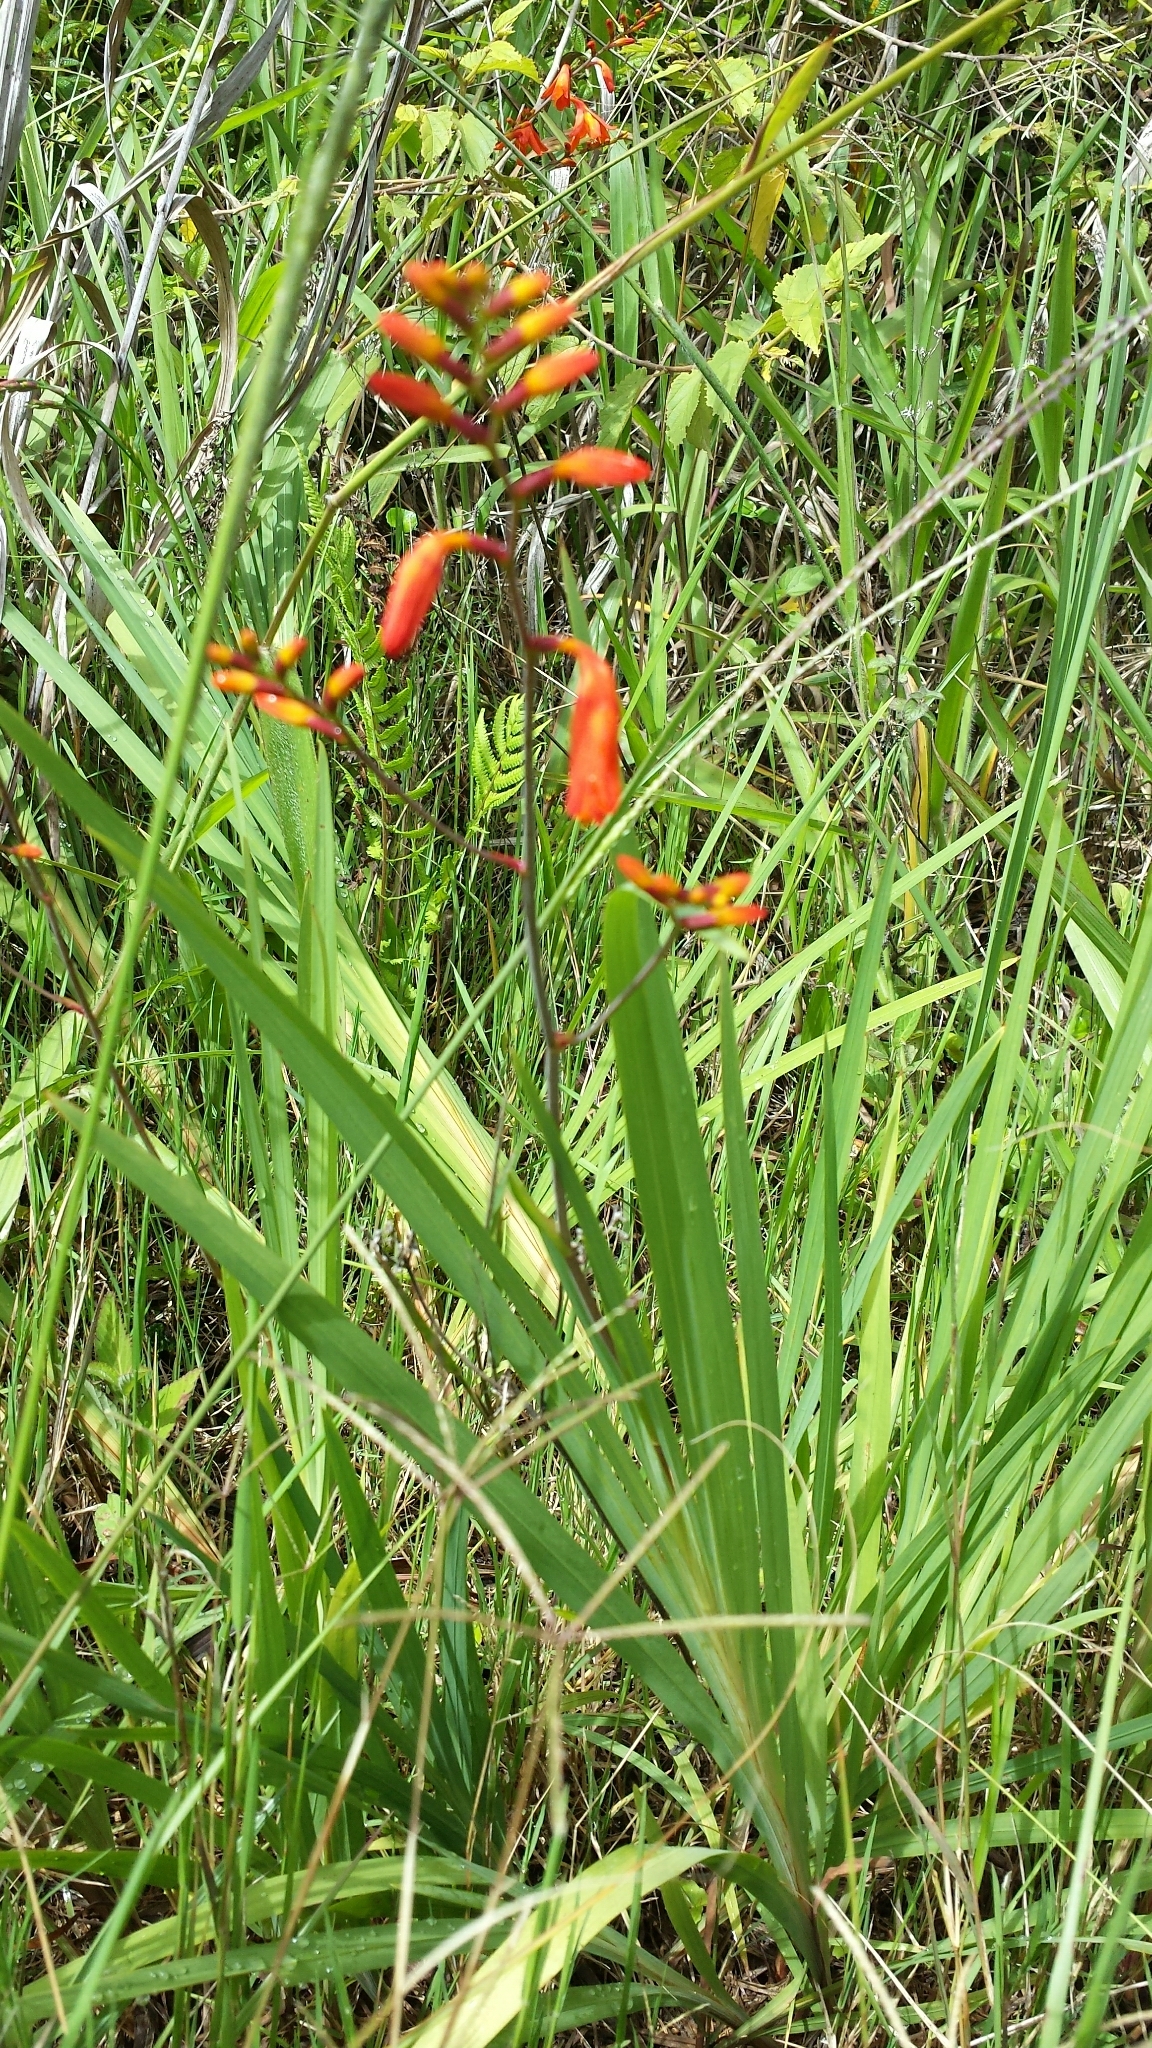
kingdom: Plantae
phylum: Tracheophyta
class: Liliopsida
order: Asparagales
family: Iridaceae
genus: Crocosmia
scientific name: Crocosmia crocosmiiflora
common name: Montbretia
